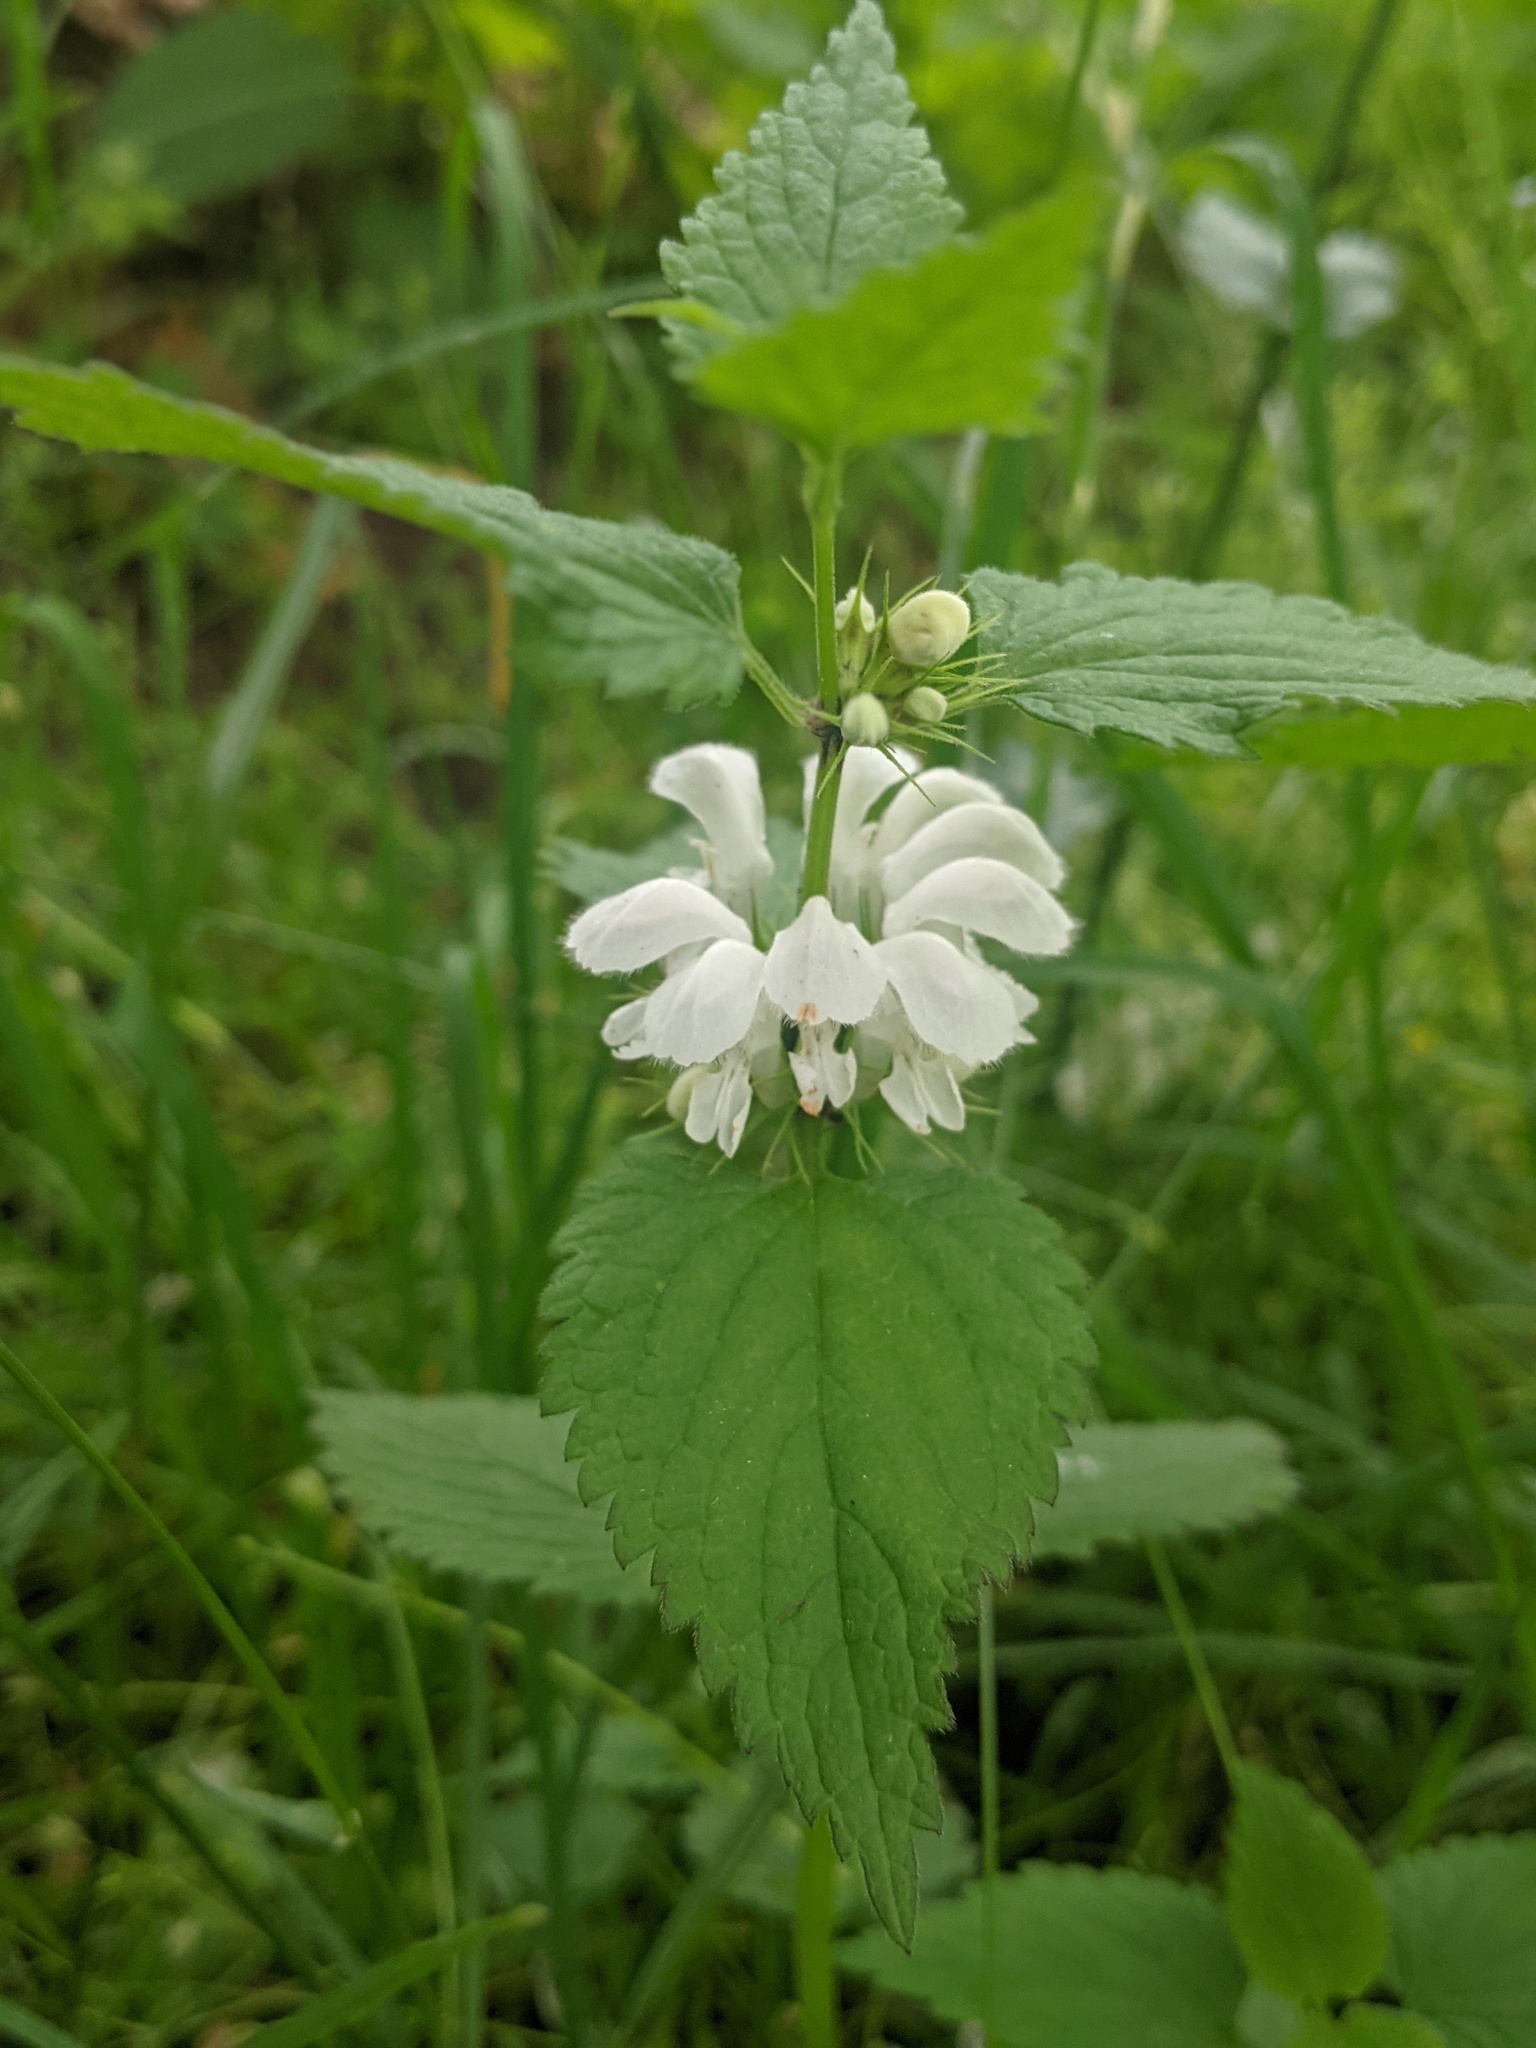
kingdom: Plantae
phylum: Tracheophyta
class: Magnoliopsida
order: Lamiales
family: Lamiaceae
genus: Lamium
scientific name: Lamium album
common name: White dead-nettle
